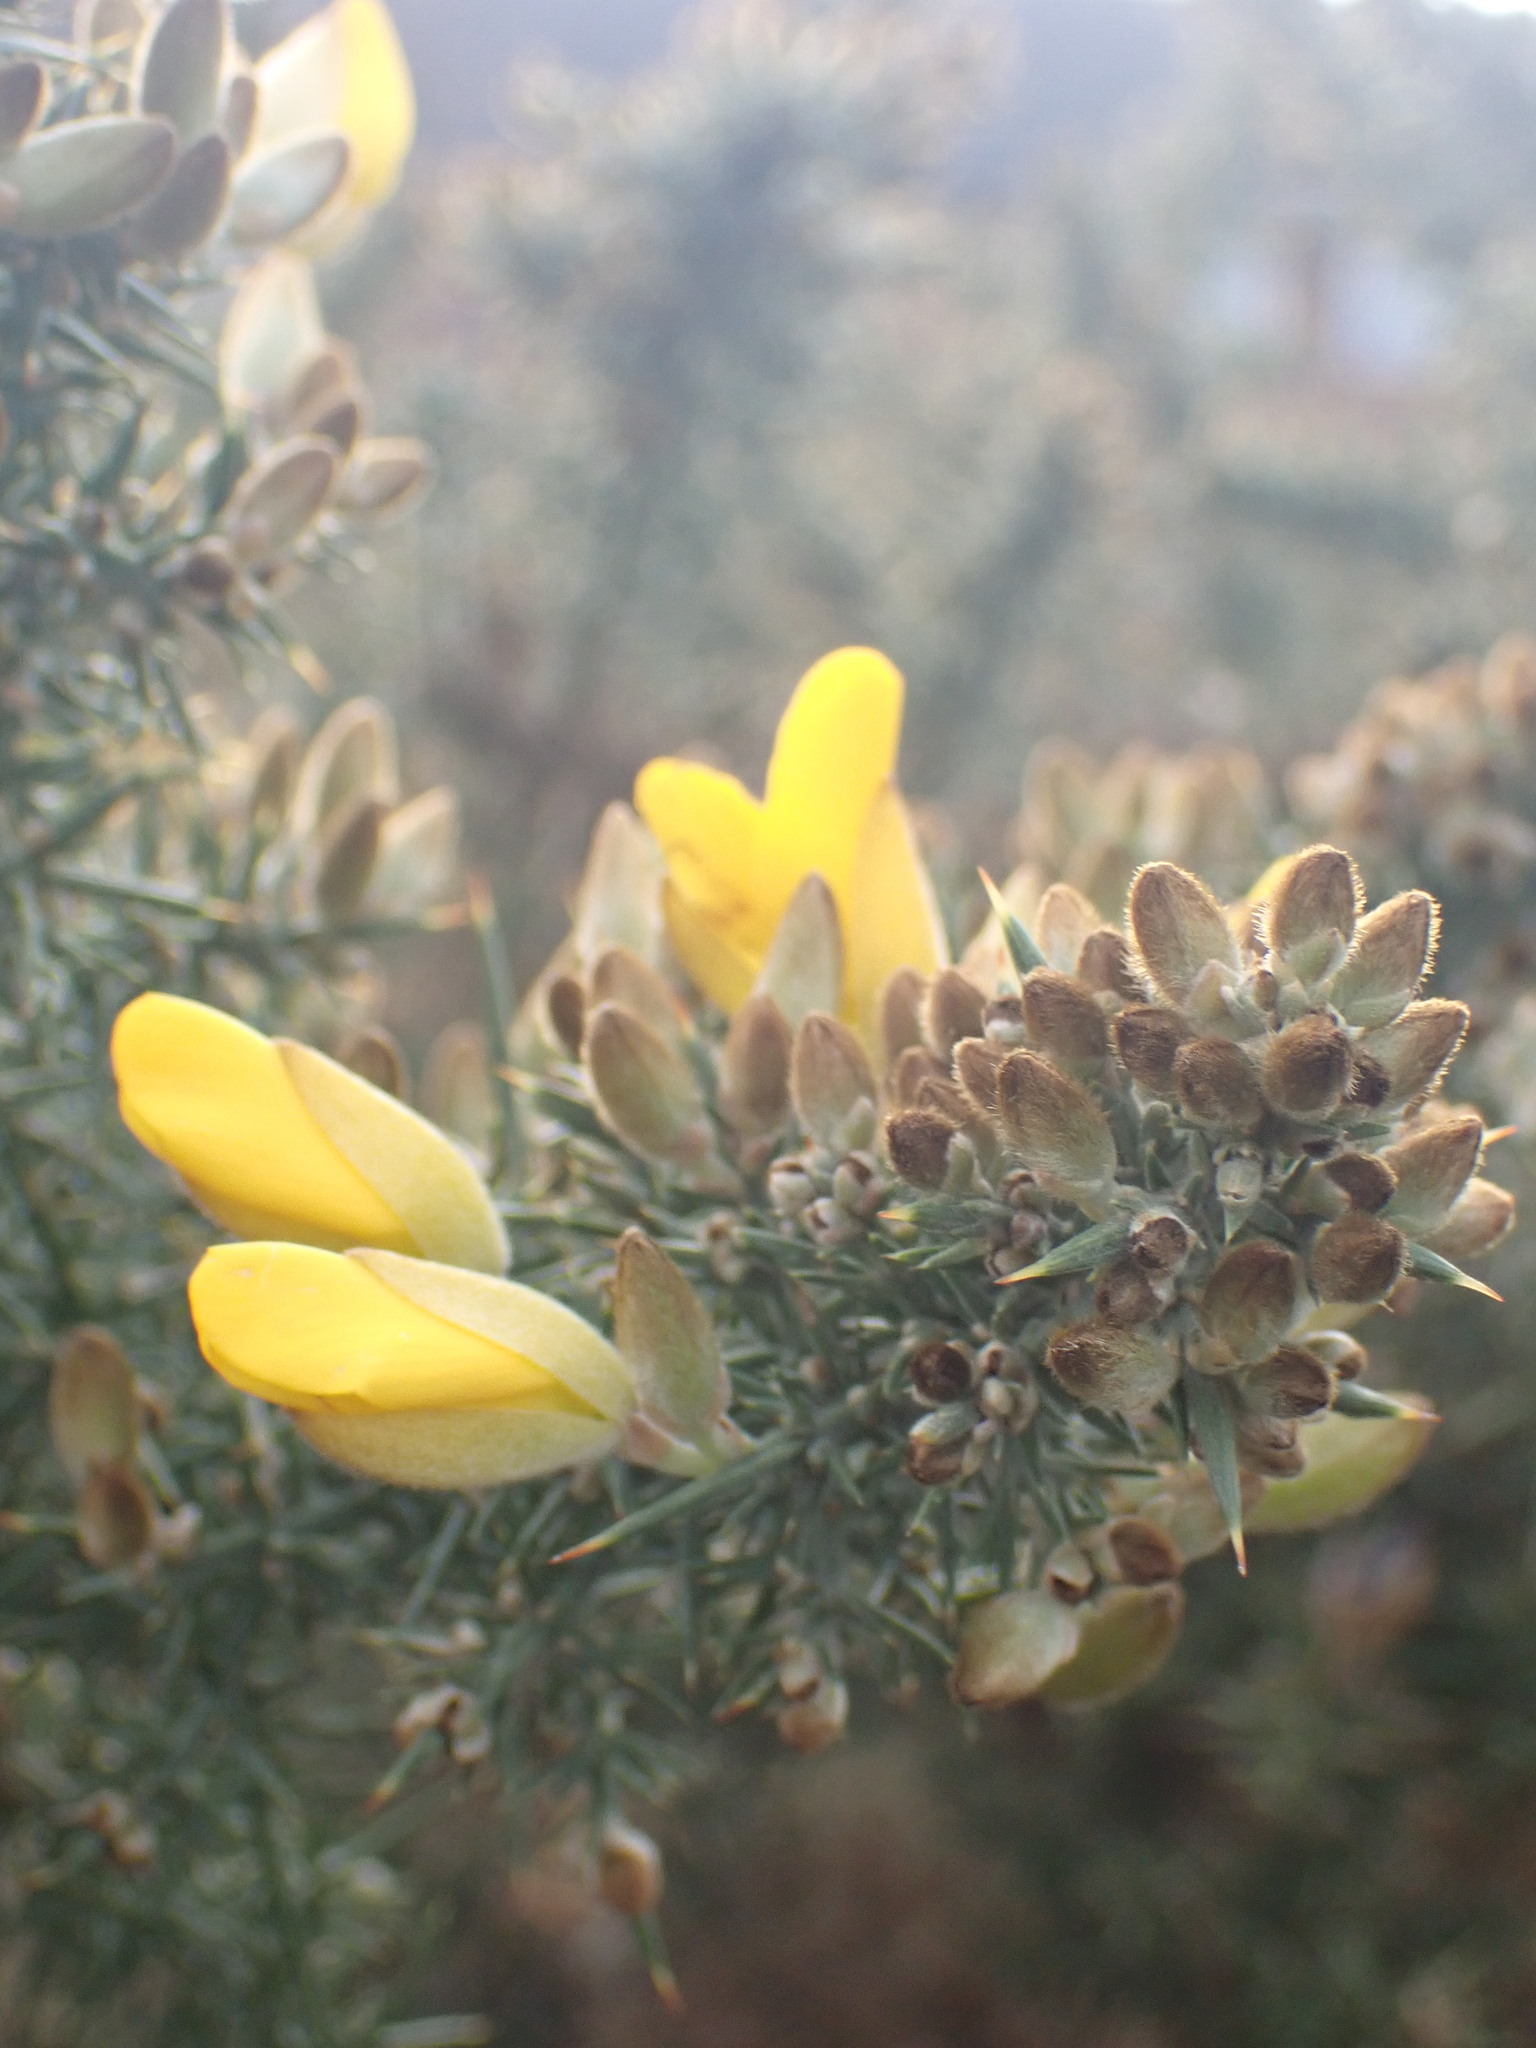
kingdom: Plantae
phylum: Tracheophyta
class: Magnoliopsida
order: Fabales
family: Fabaceae
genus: Ulex
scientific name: Ulex europaeus
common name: Common gorse
